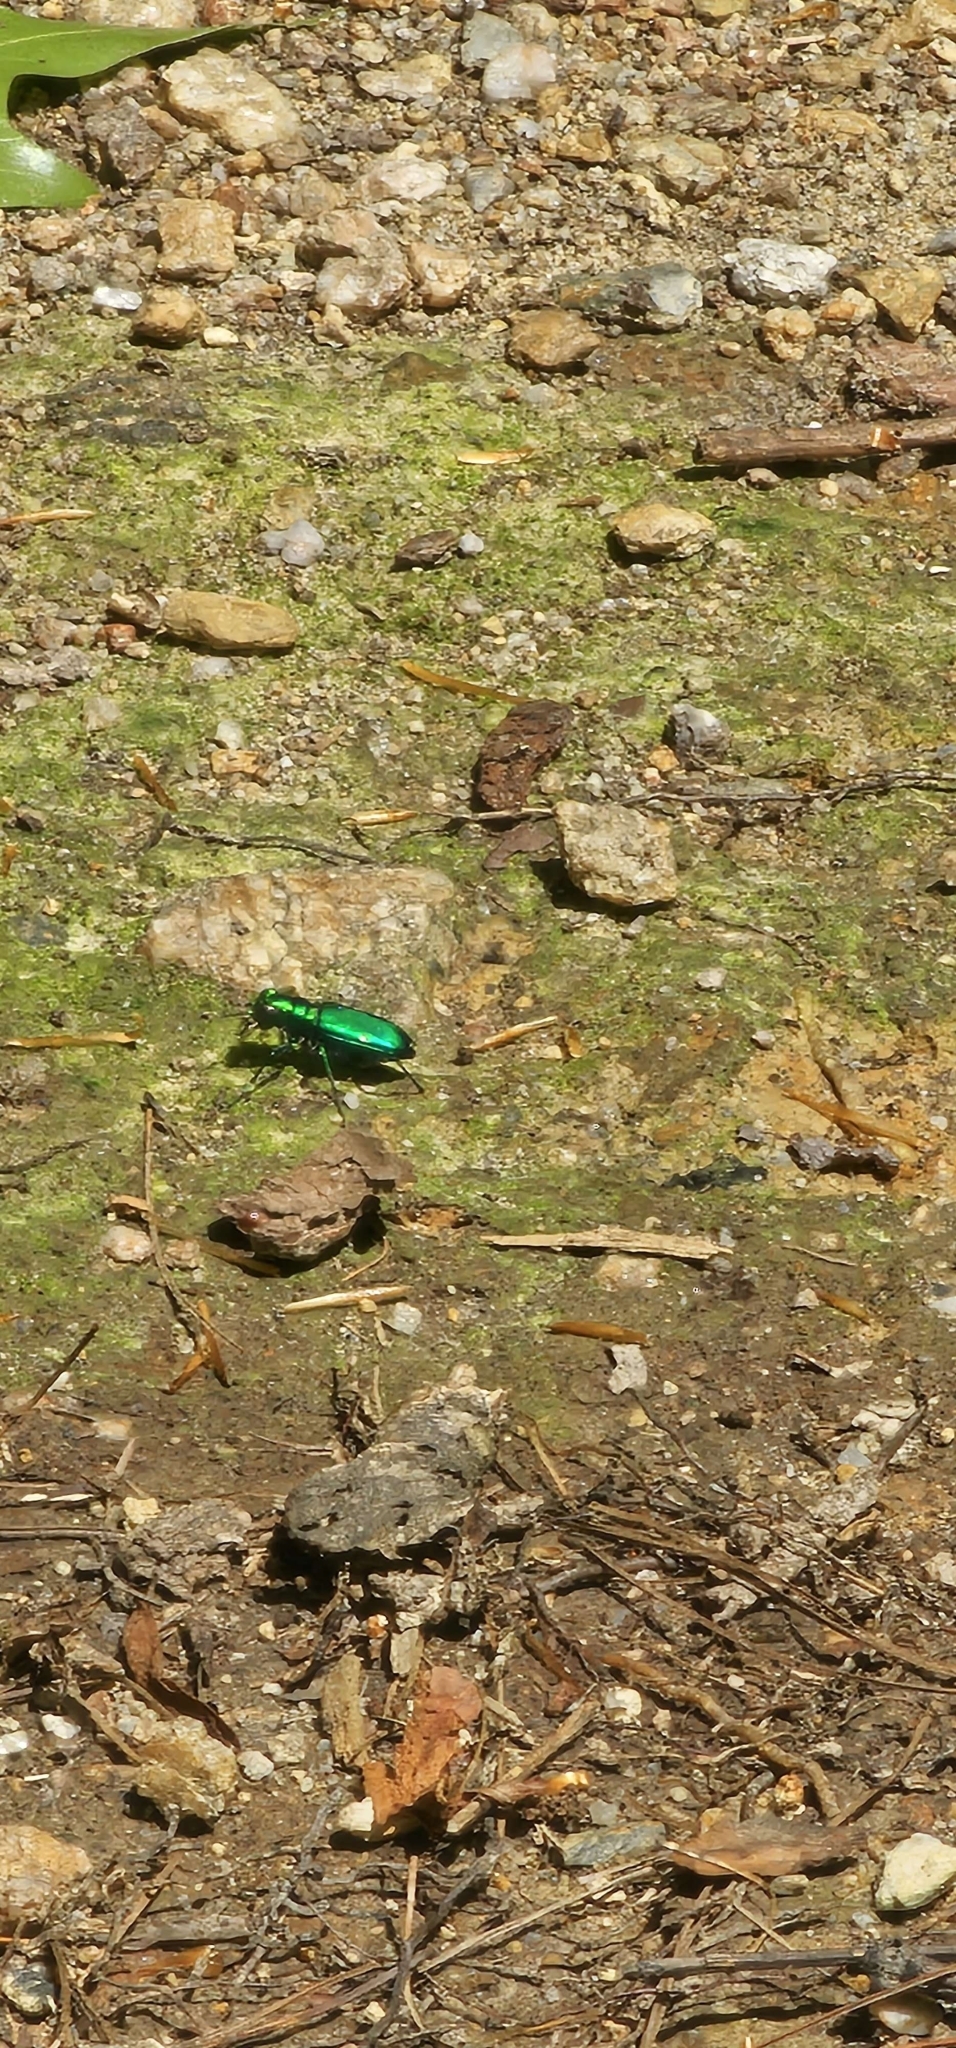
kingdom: Animalia
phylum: Arthropoda
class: Insecta
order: Coleoptera
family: Carabidae
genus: Cicindela
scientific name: Cicindela sexguttata
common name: Six-spotted tiger beetle
